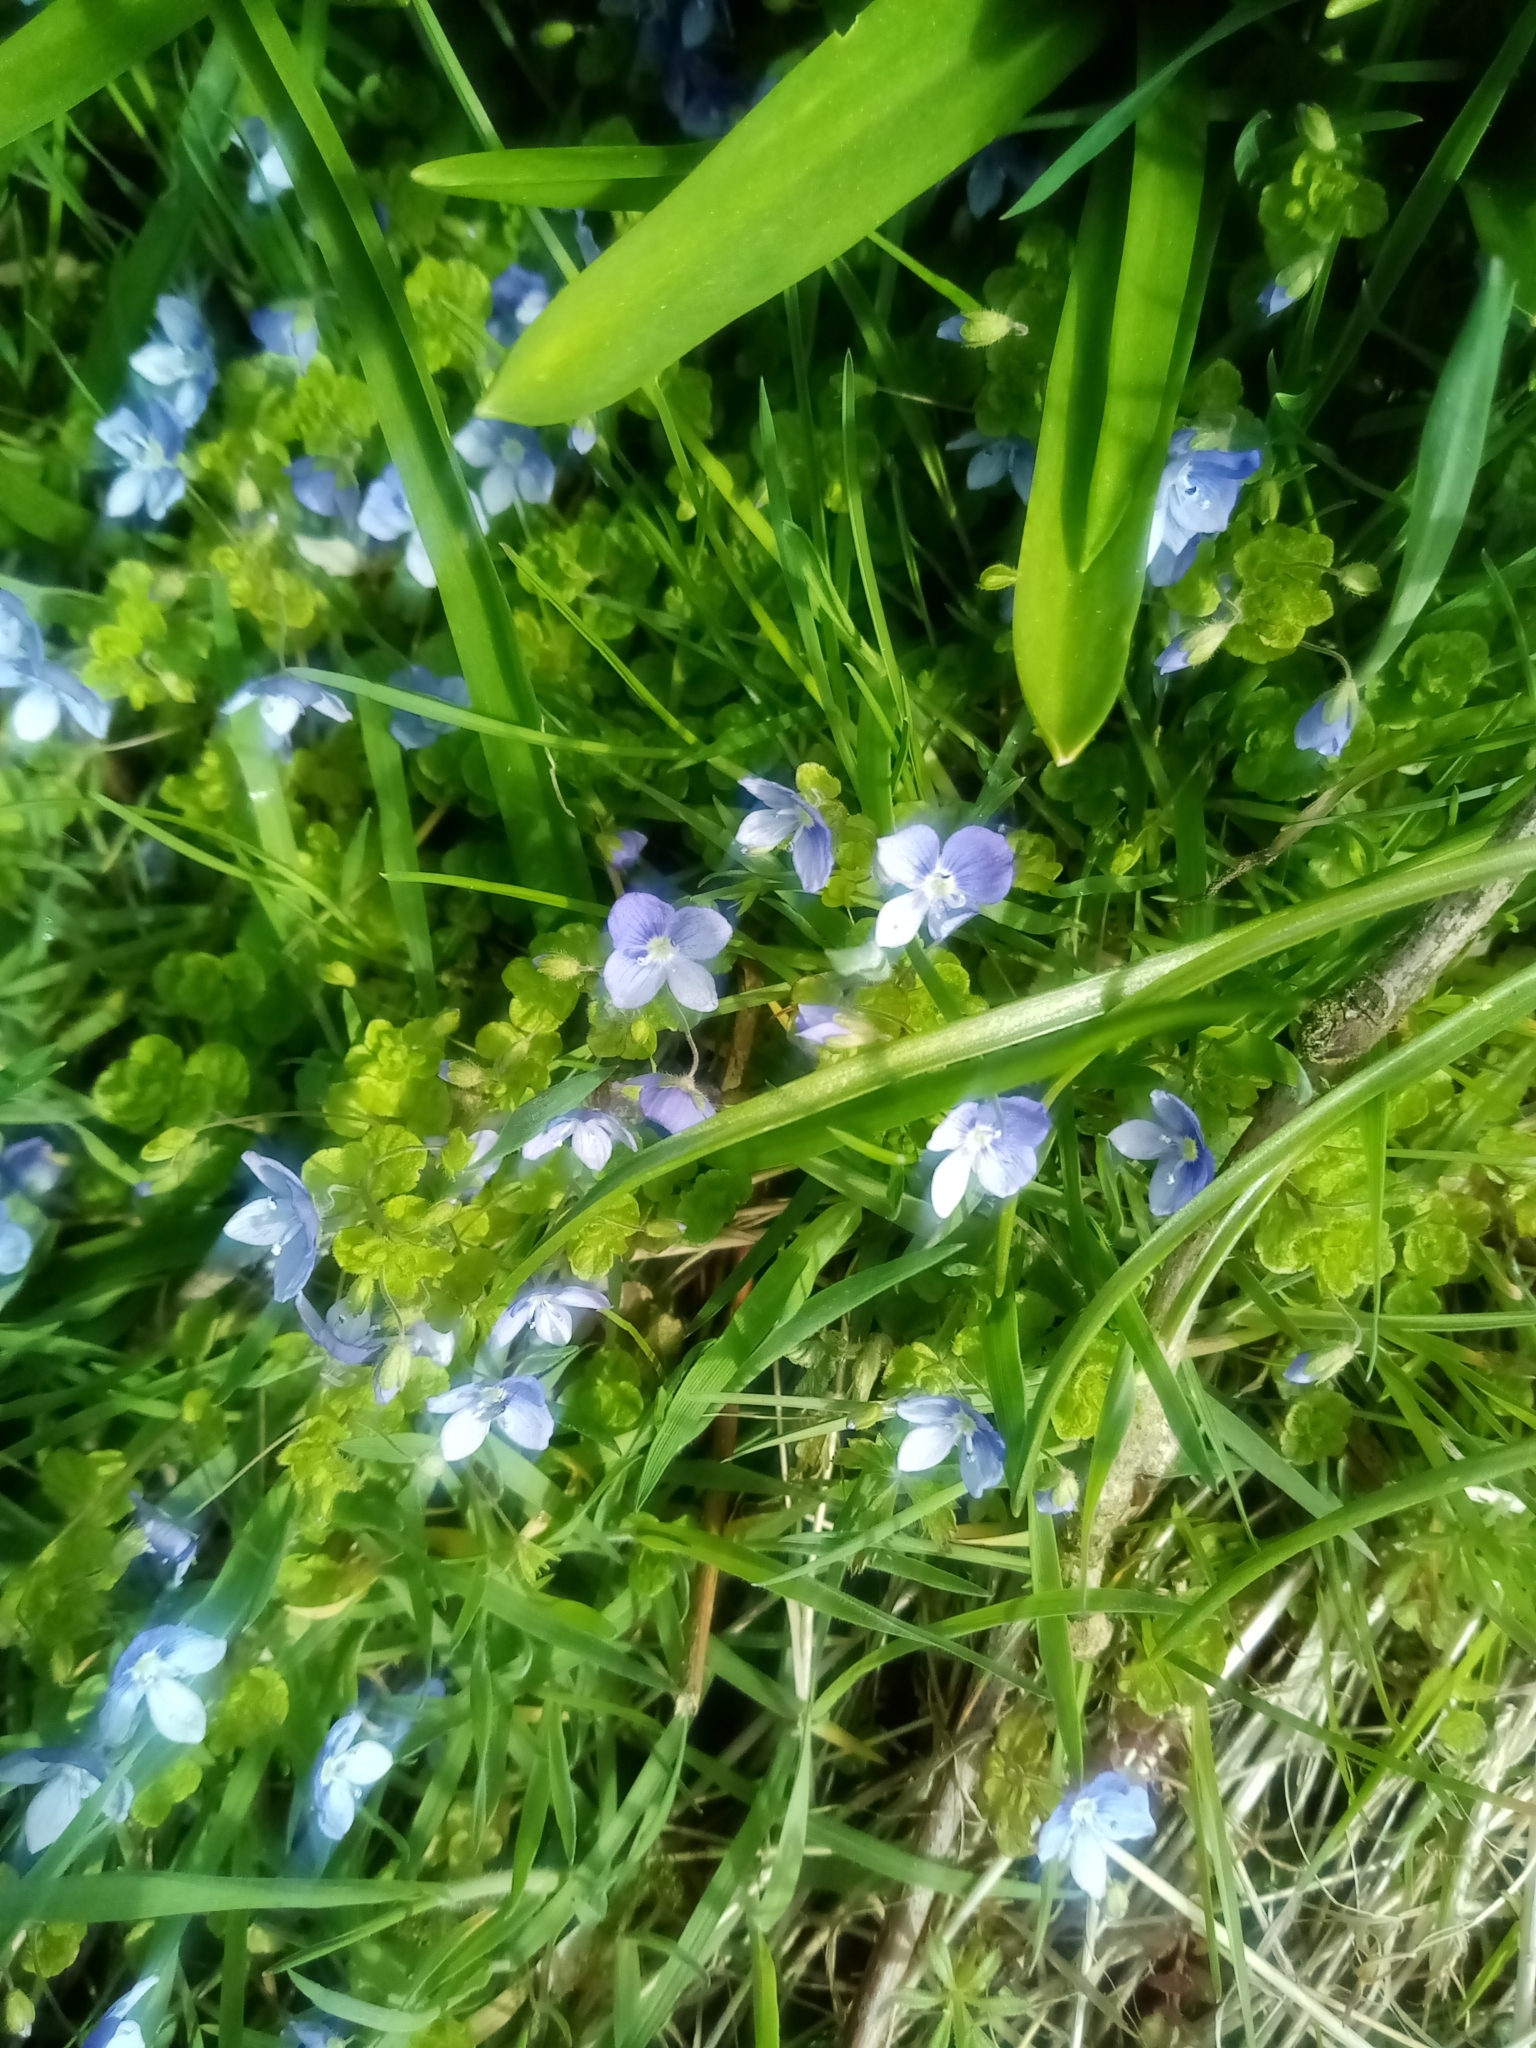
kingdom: Plantae
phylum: Tracheophyta
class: Magnoliopsida
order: Lamiales
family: Plantaginaceae
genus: Veronica
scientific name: Veronica filiformis
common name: Slender speedwell
